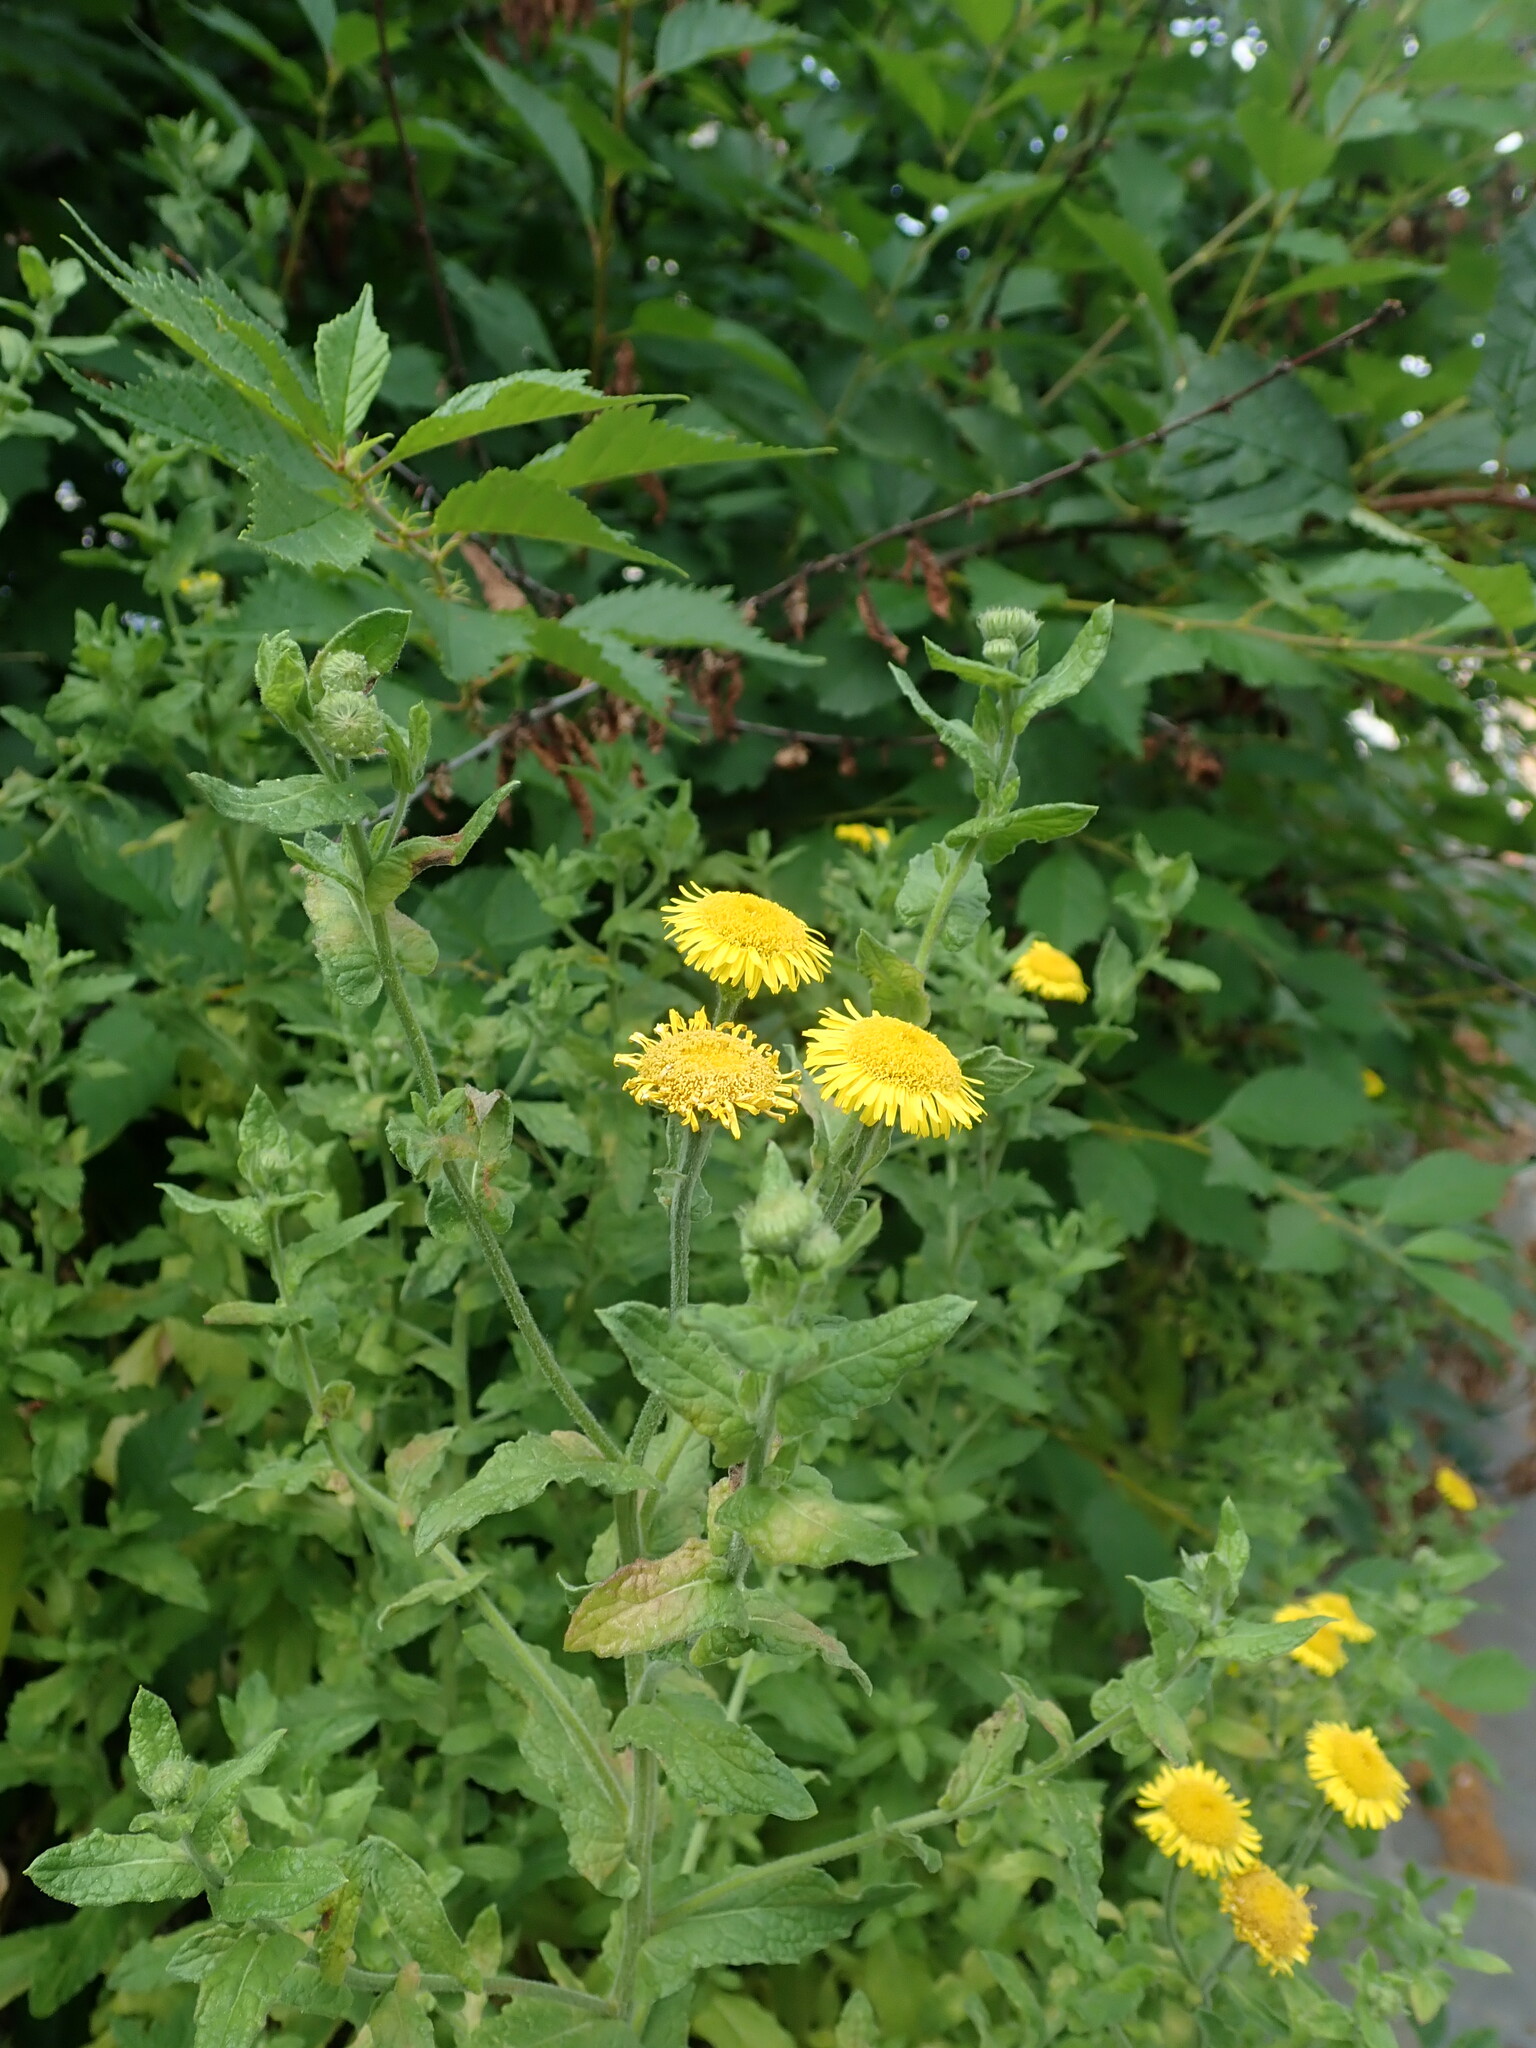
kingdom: Plantae
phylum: Tracheophyta
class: Magnoliopsida
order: Asterales
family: Asteraceae
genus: Pulicaria
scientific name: Pulicaria dysenterica
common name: Common fleabane
